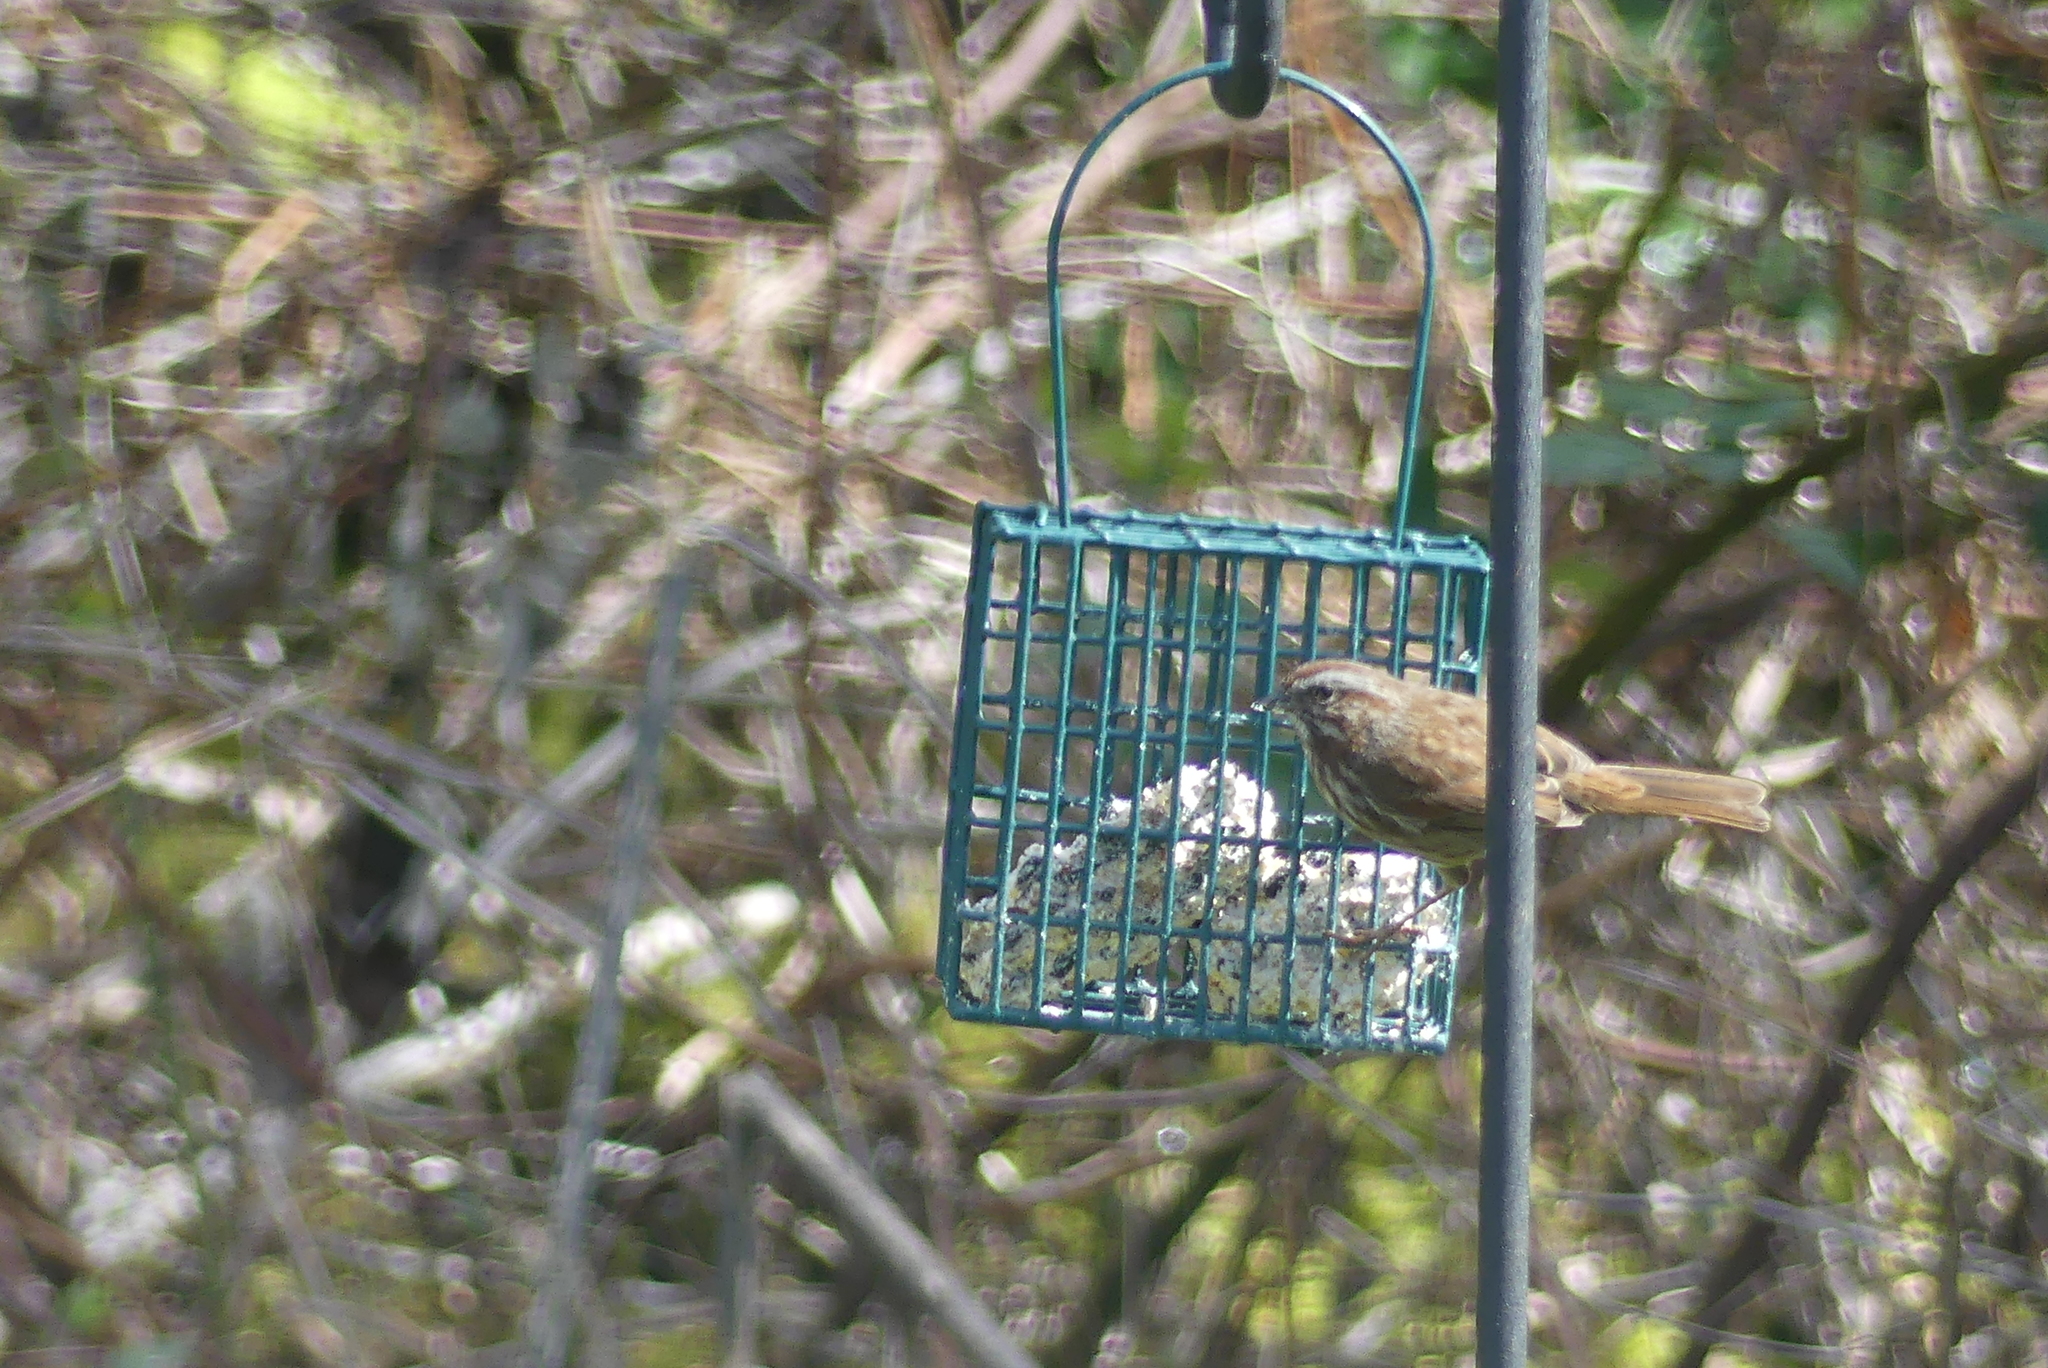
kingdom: Animalia
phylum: Chordata
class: Aves
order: Passeriformes
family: Passerellidae
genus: Melospiza
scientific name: Melospiza melodia
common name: Song sparrow
